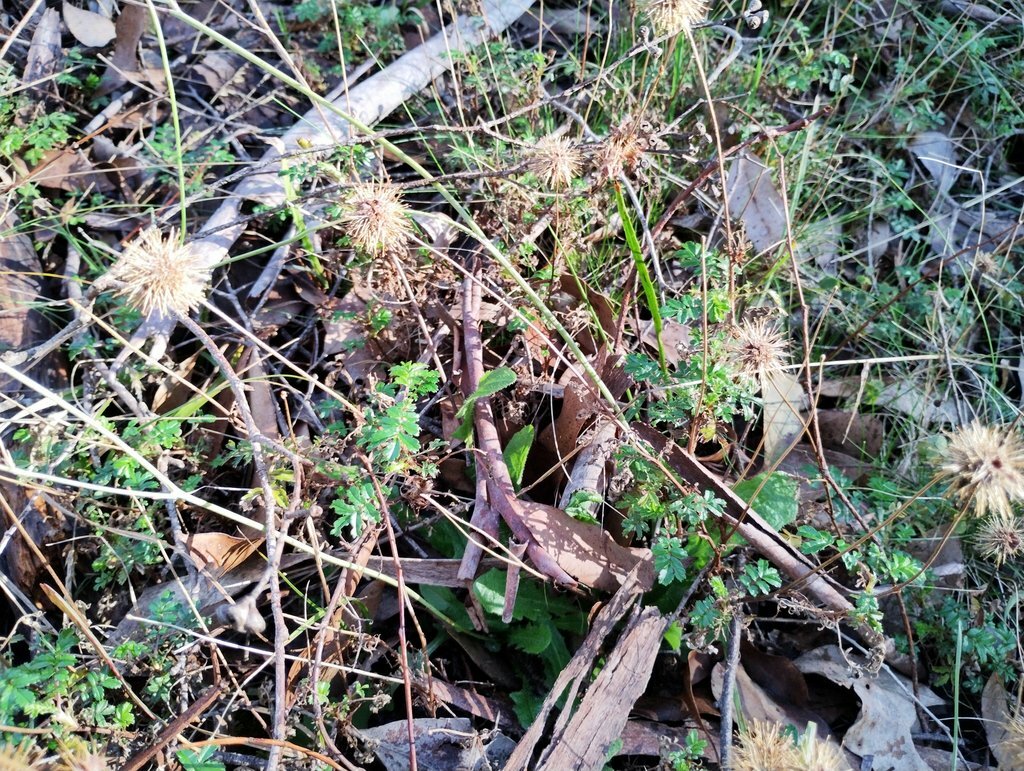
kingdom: Plantae
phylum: Tracheophyta
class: Magnoliopsida
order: Rosales
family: Rosaceae
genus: Acaena
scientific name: Acaena novae-zelandiae
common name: Pirri-pirri-bur
